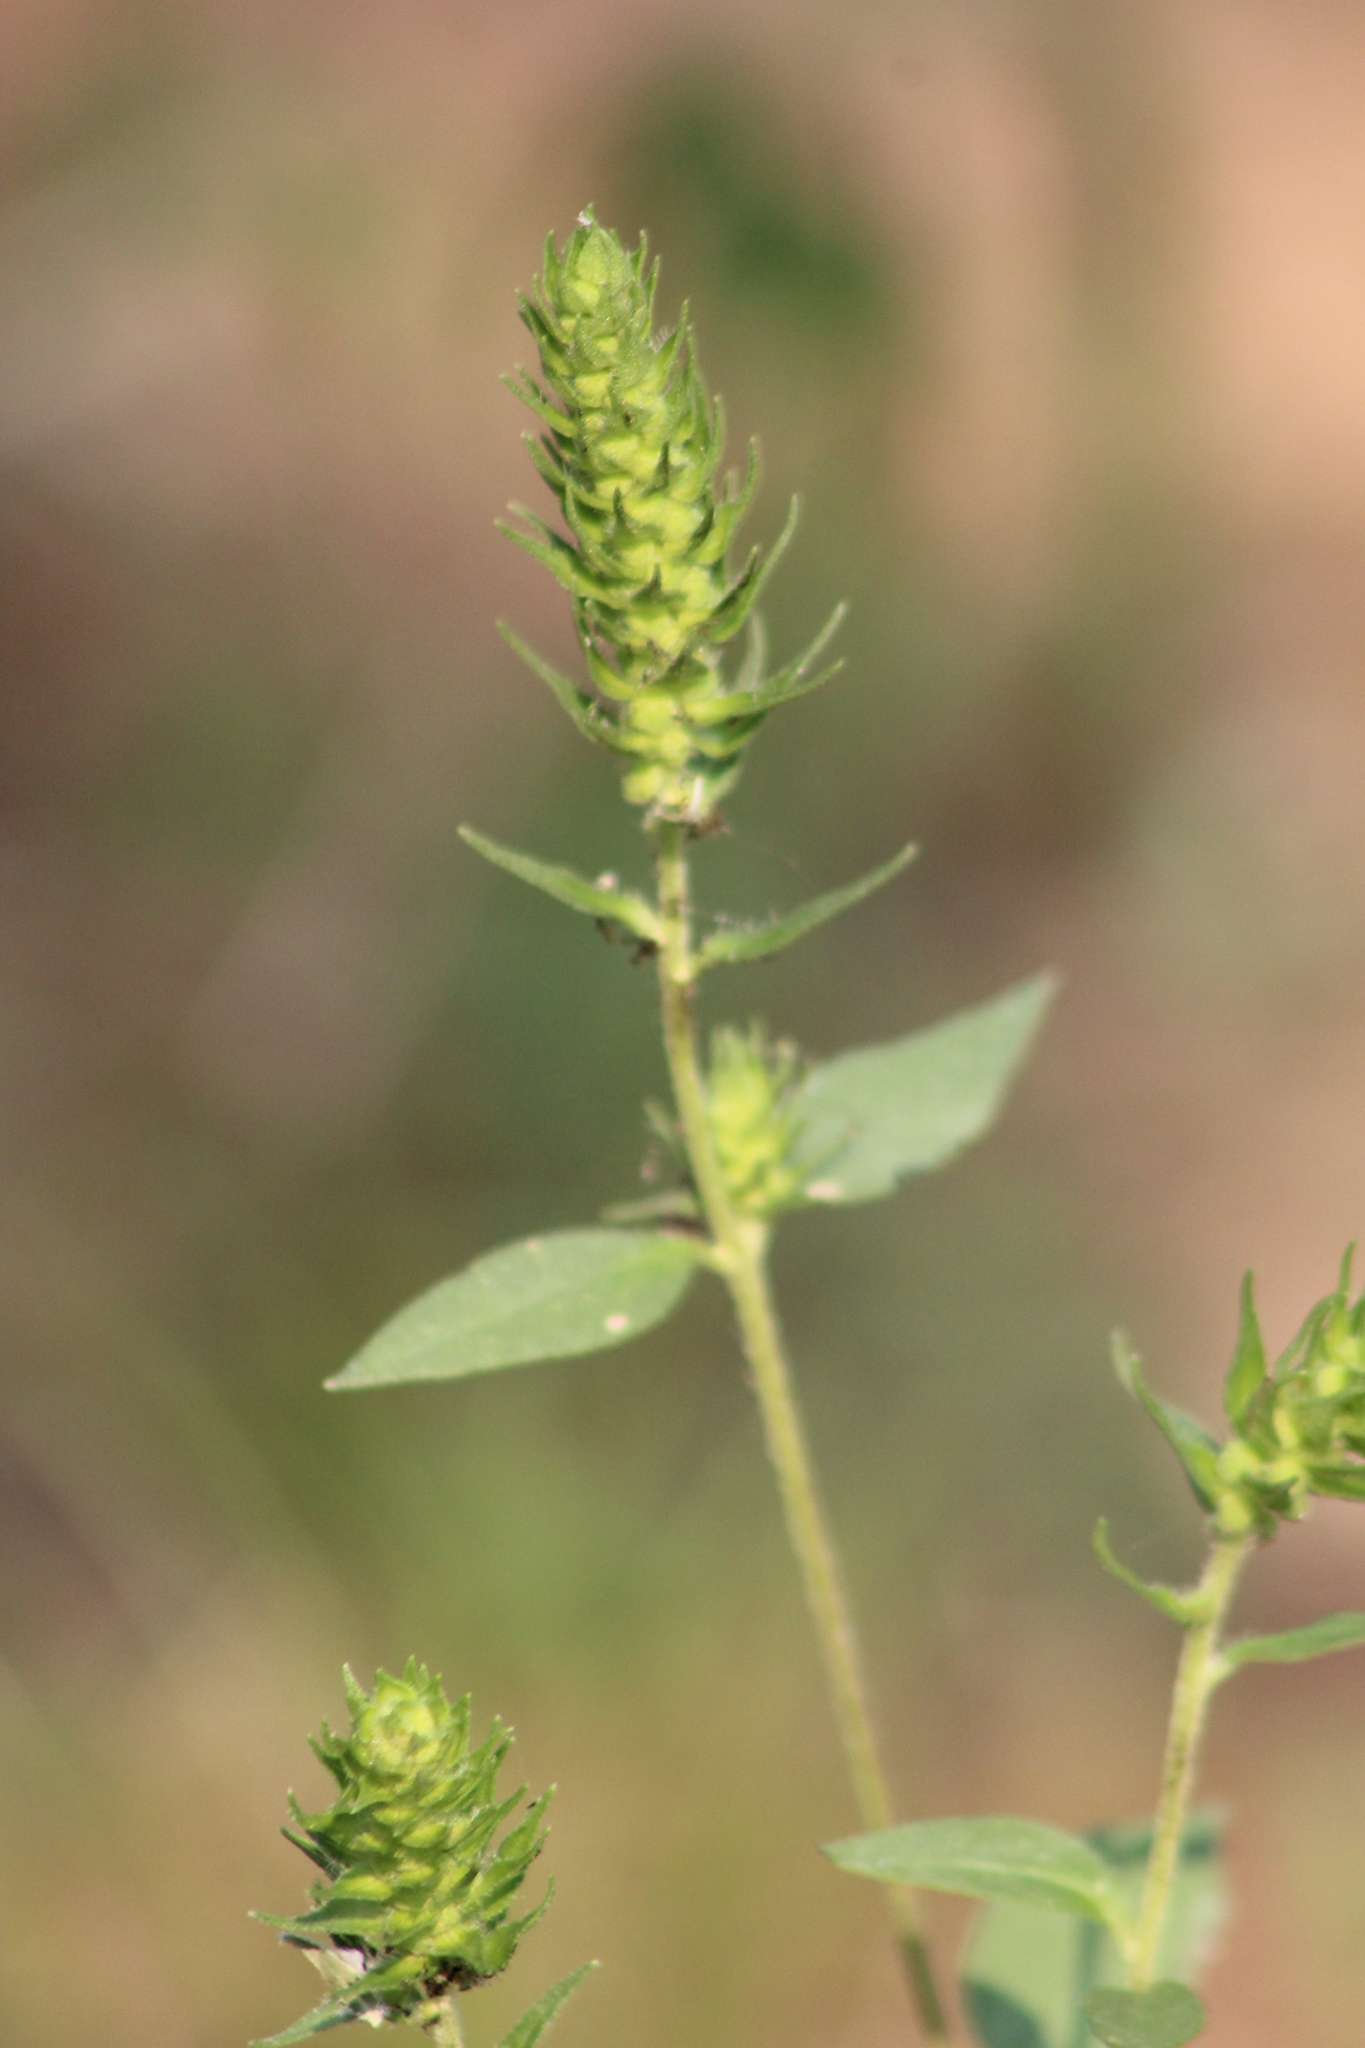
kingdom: Plantae
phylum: Tracheophyta
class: Magnoliopsida
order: Asterales
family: Asteraceae
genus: Iva
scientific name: Iva annua
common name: Marsh-elder
